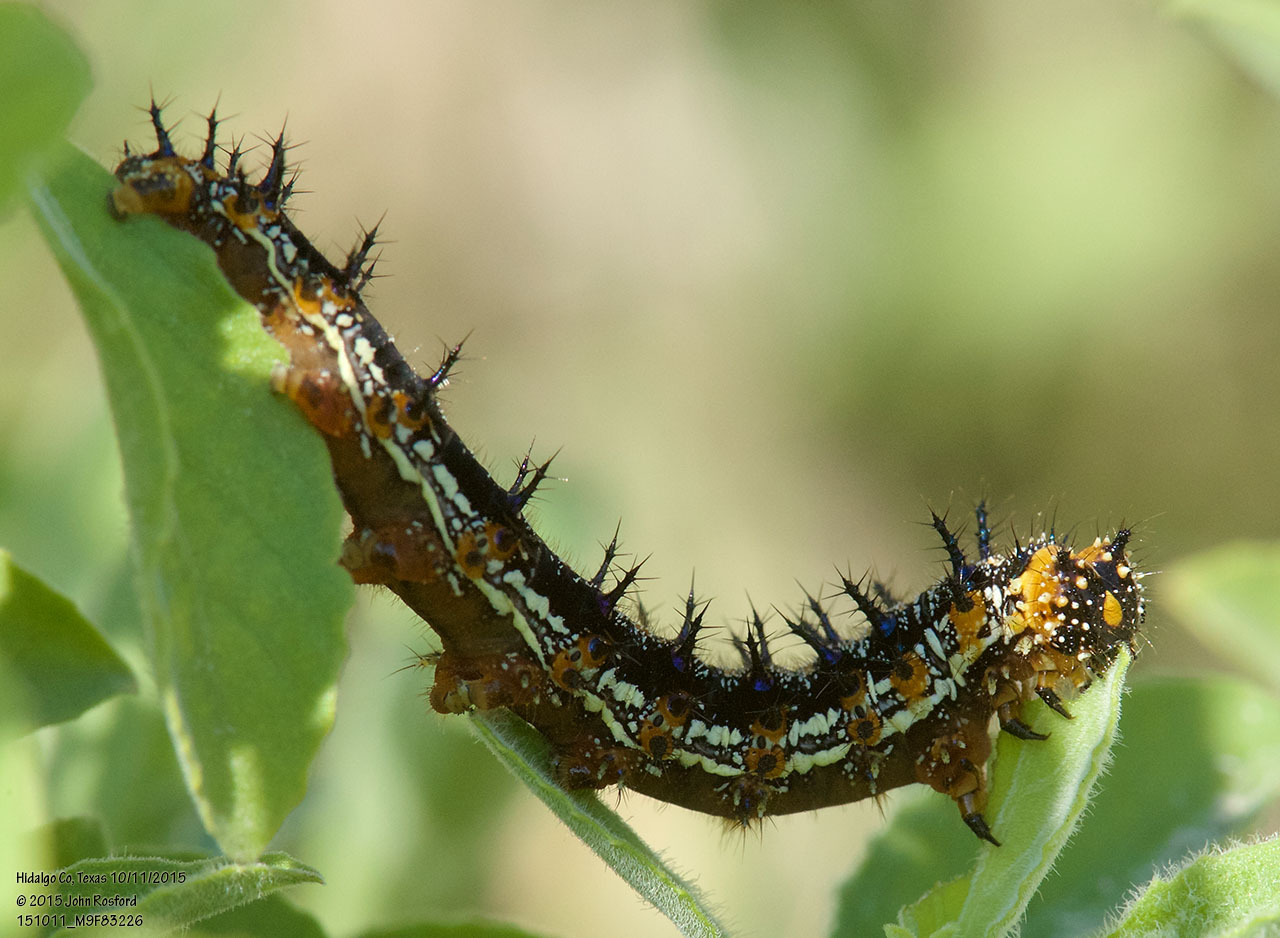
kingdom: Animalia
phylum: Arthropoda
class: Insecta
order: Lepidoptera
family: Nymphalidae
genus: Junonia
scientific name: Junonia coenia
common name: Common buckeye
